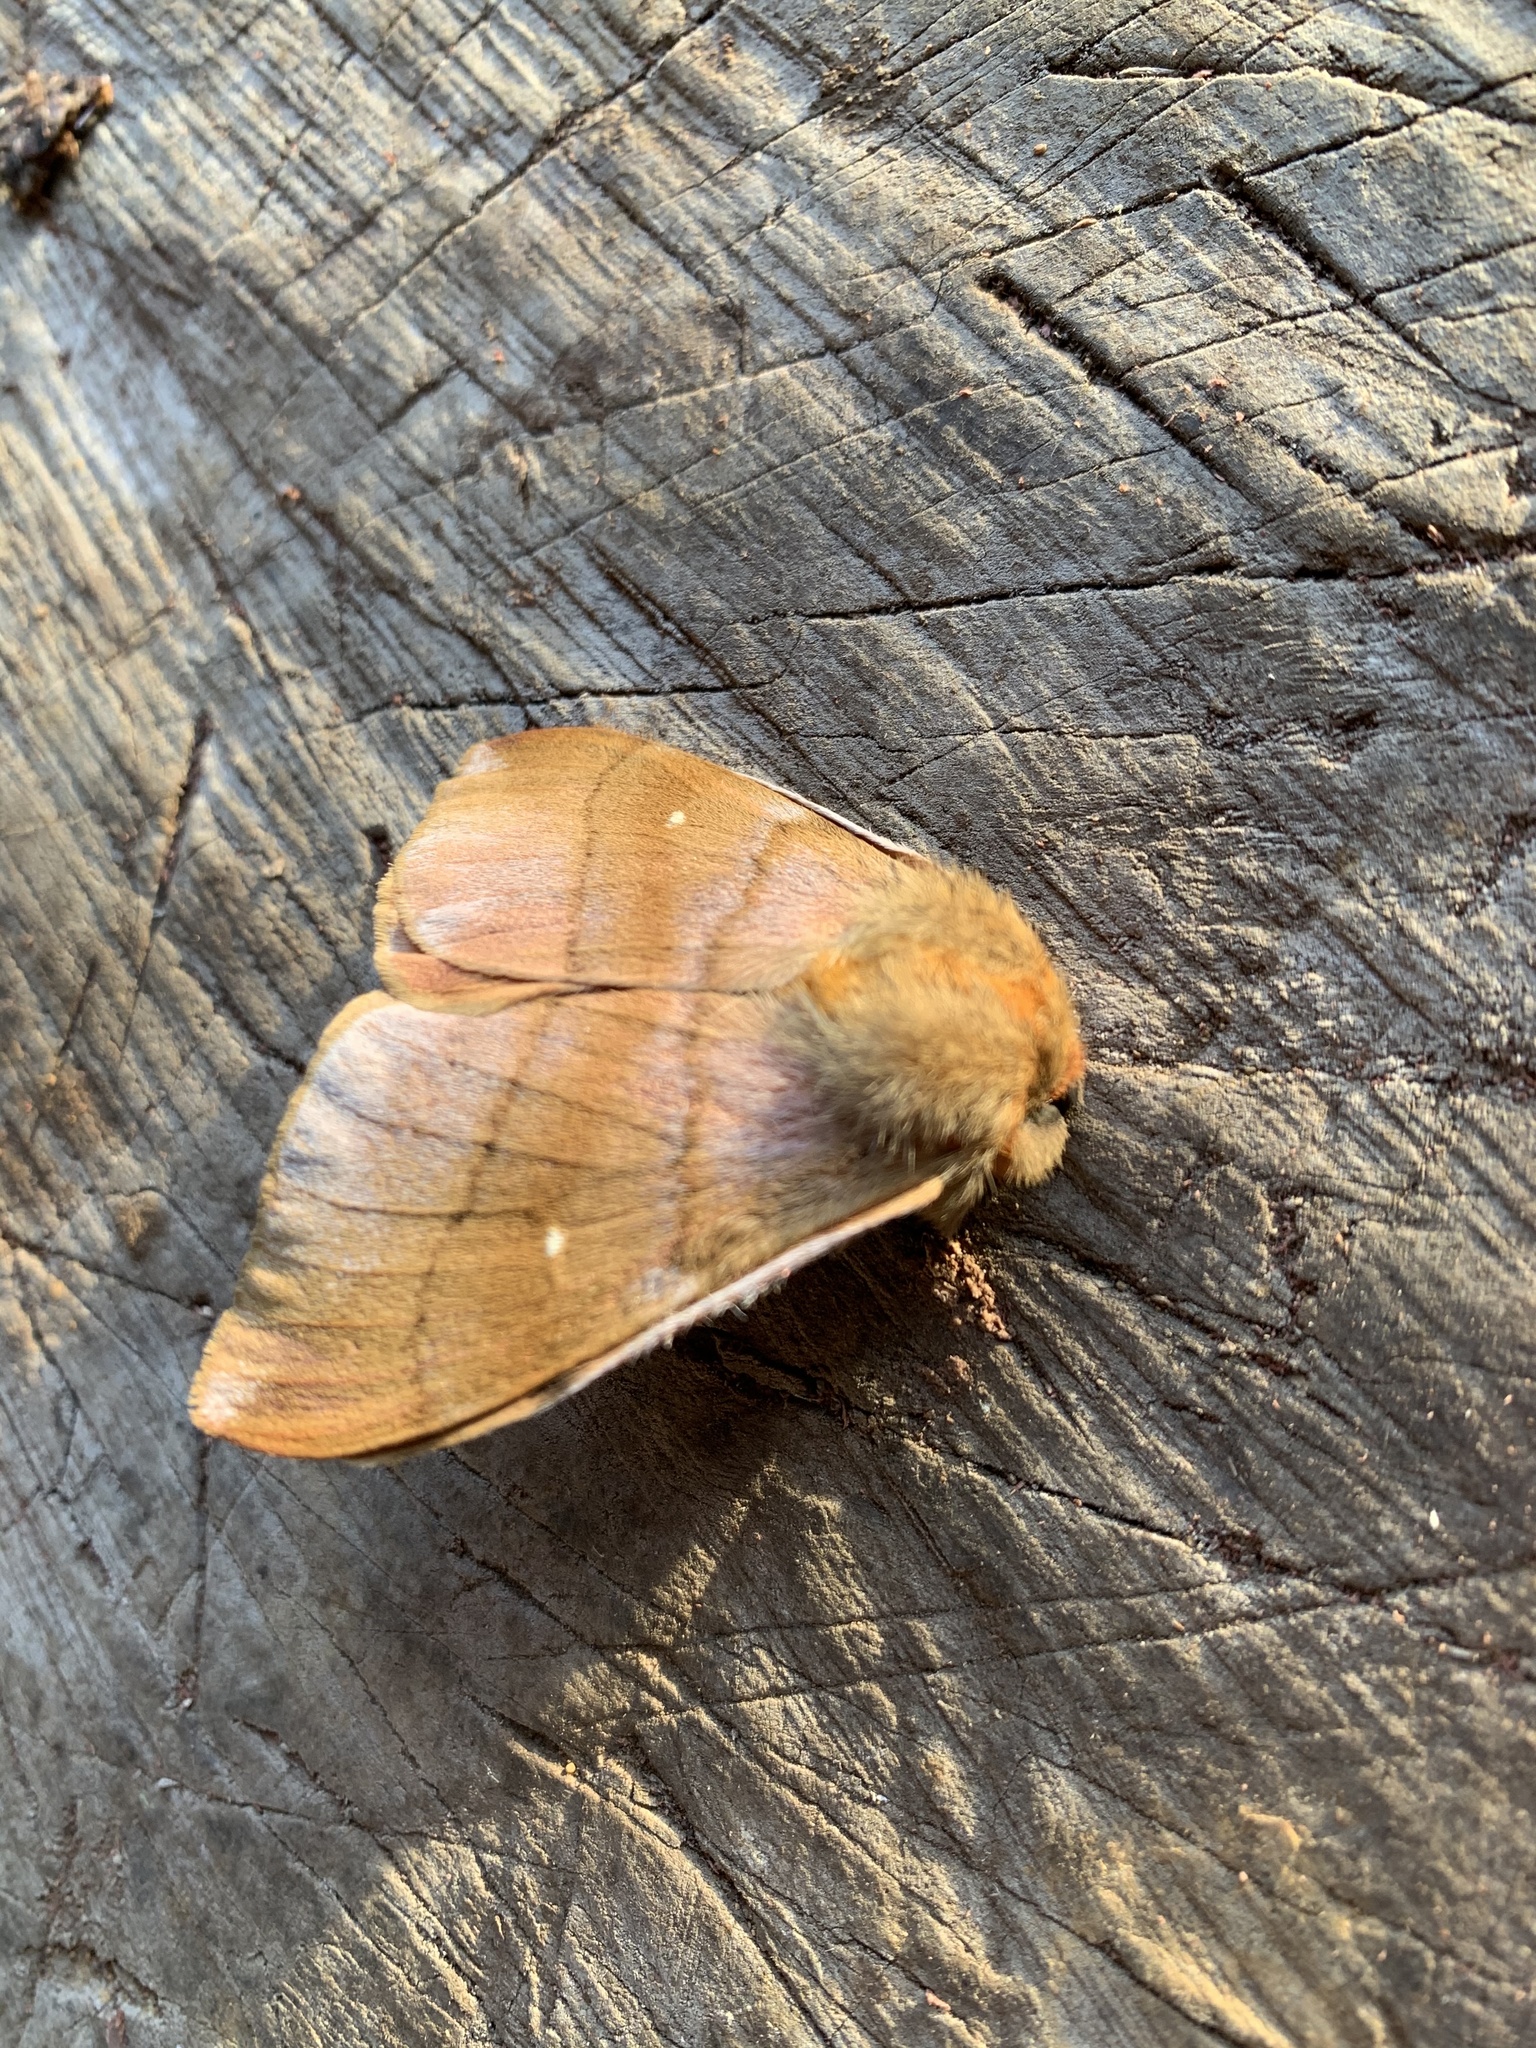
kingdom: Animalia
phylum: Arthropoda
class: Insecta
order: Lepidoptera
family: Saturniidae
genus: Ormiscodes
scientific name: Ormiscodes cinnamomea
